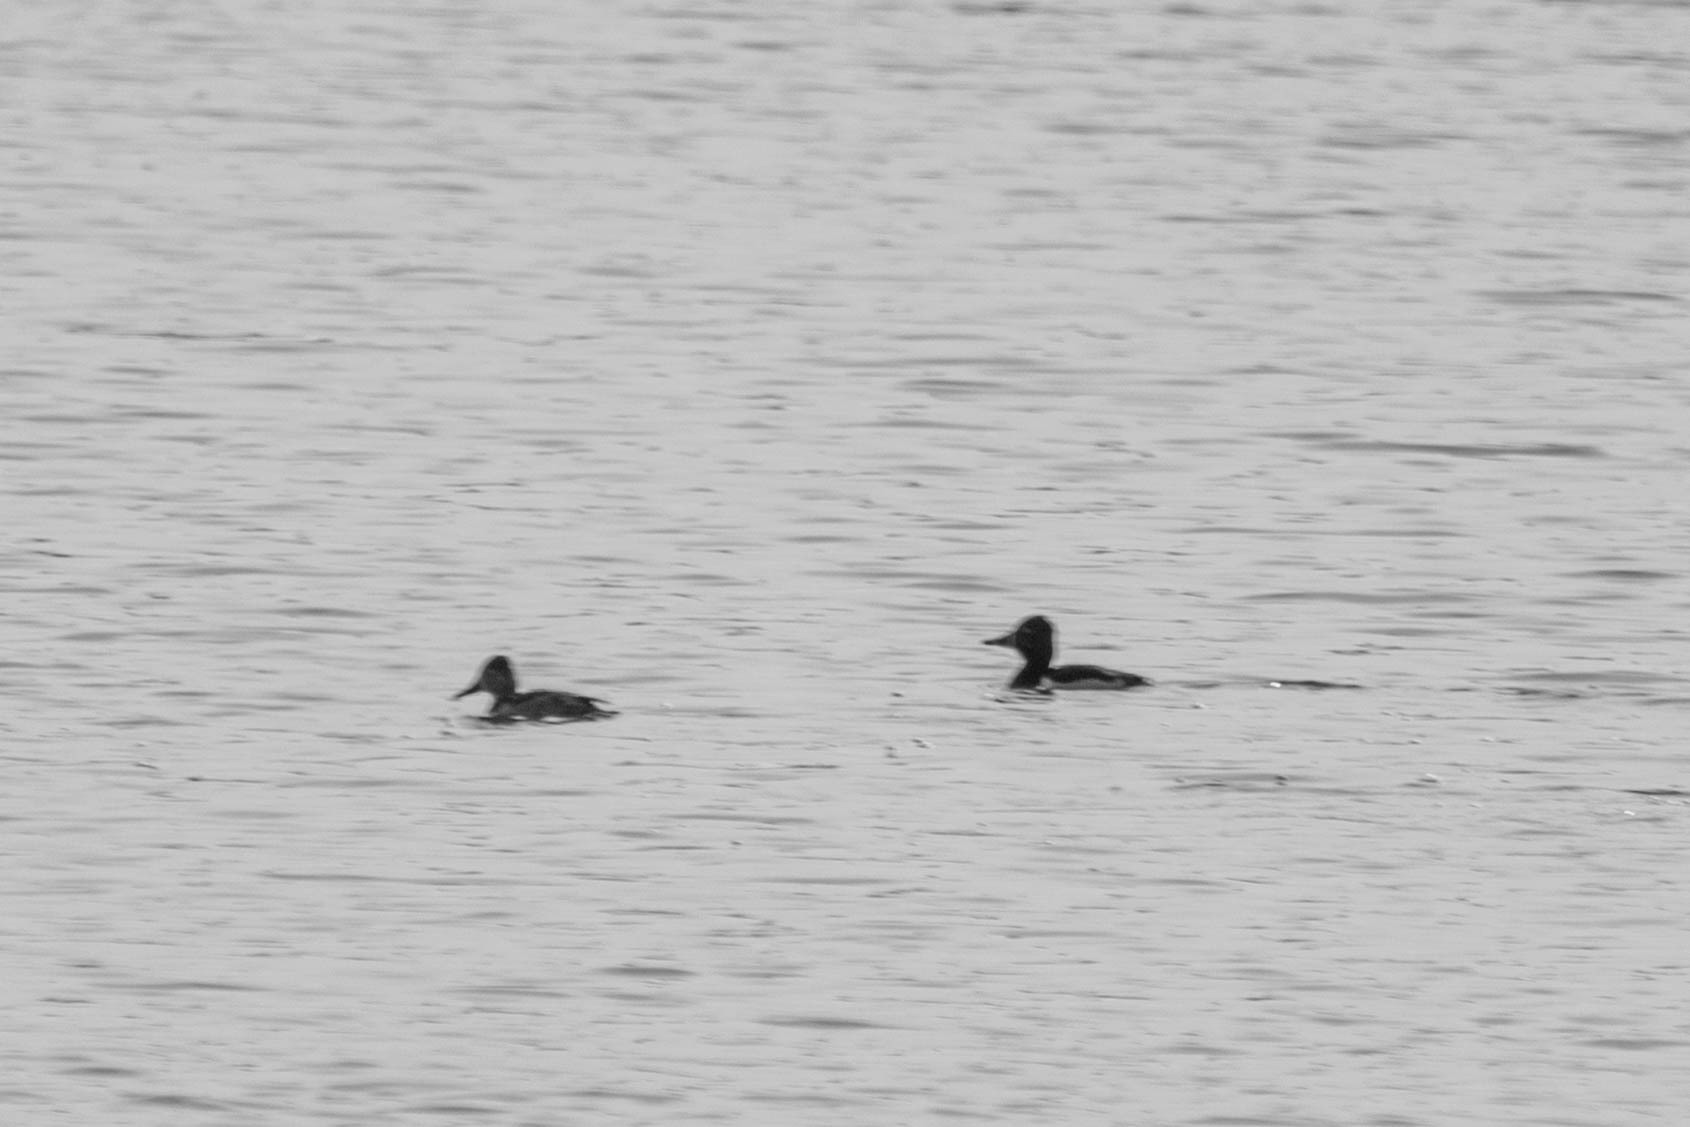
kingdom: Animalia
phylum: Chordata
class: Aves
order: Anseriformes
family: Anatidae
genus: Aythya
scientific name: Aythya collaris
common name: Ring-necked duck
